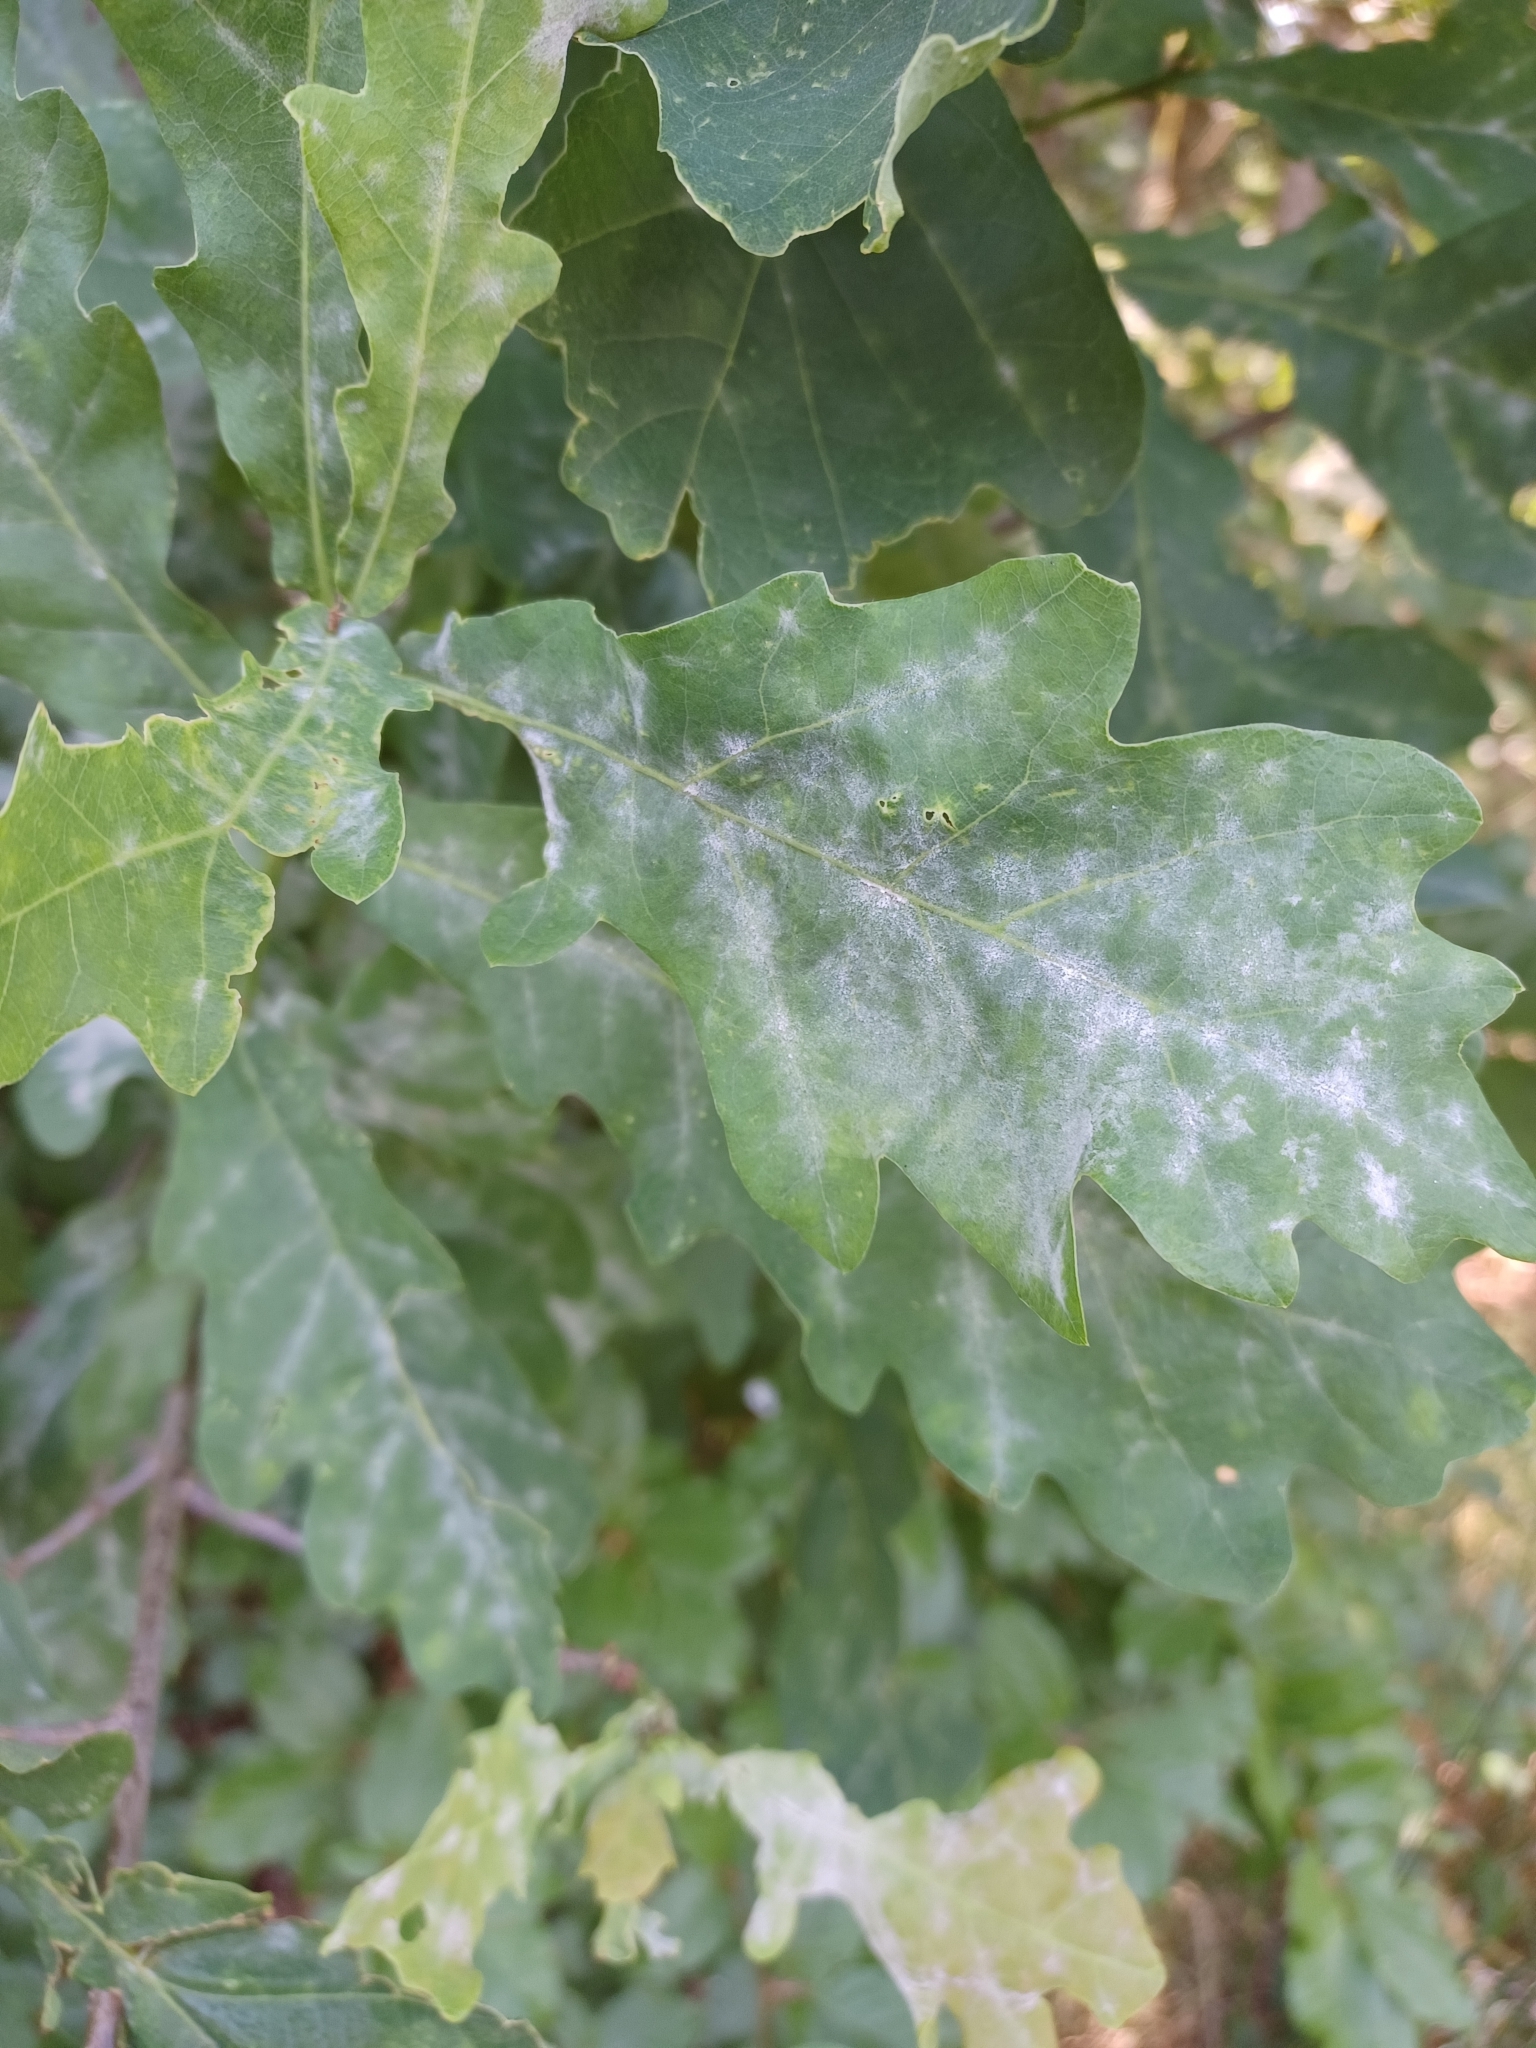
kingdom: Fungi
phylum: Ascomycota
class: Leotiomycetes
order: Helotiales
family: Erysiphaceae
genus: Erysiphe
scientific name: Erysiphe
